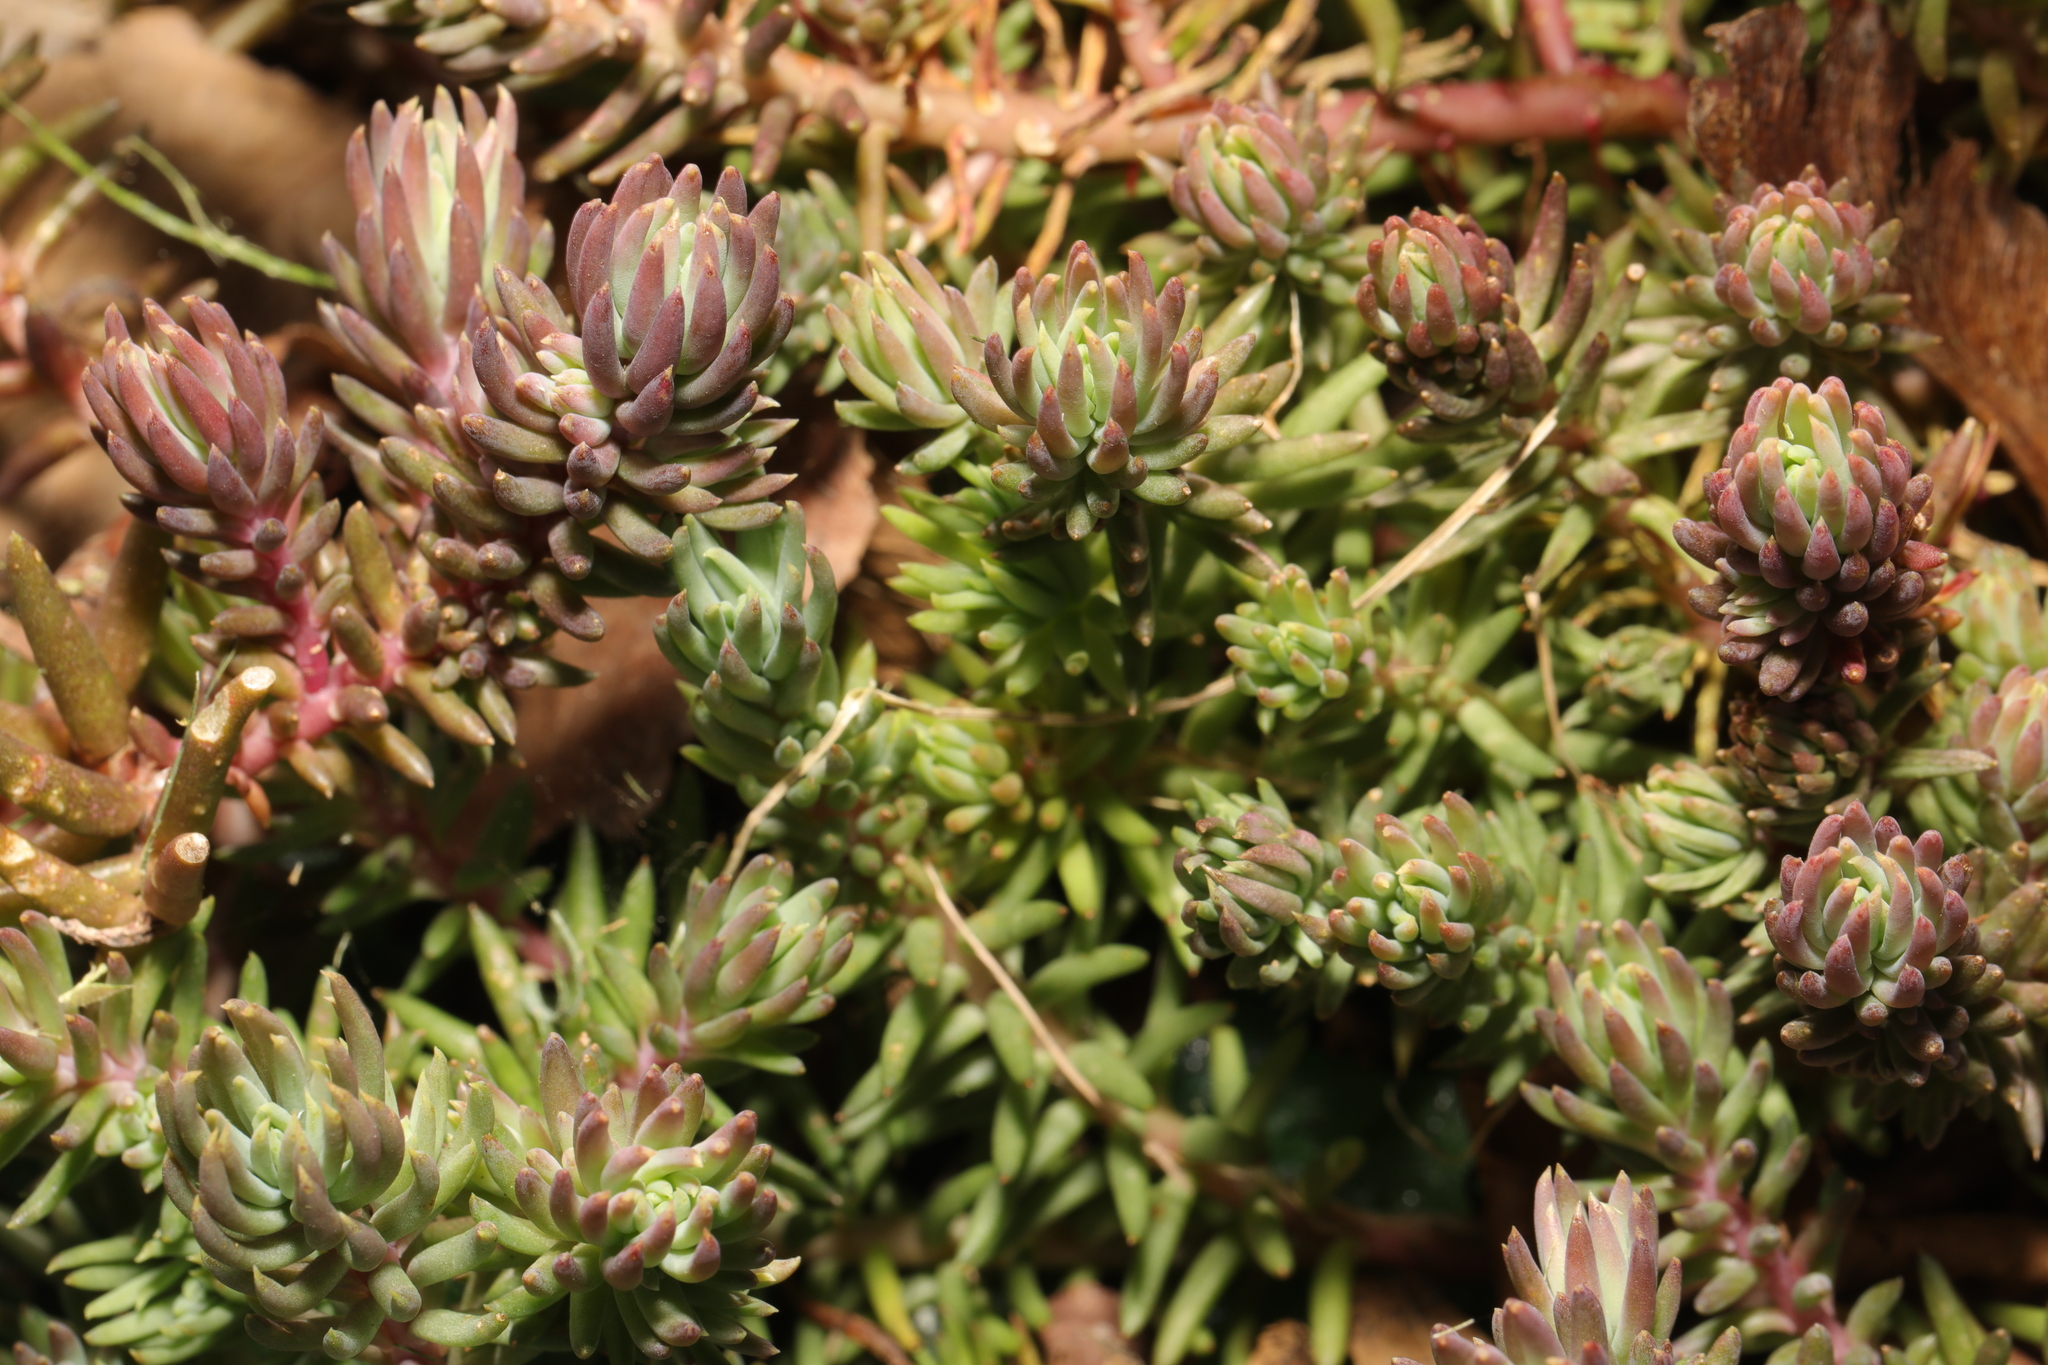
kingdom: Plantae
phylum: Tracheophyta
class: Magnoliopsida
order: Saxifragales
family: Crassulaceae
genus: Petrosedum
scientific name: Petrosedum rupestre
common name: Jenny's stonecrop
